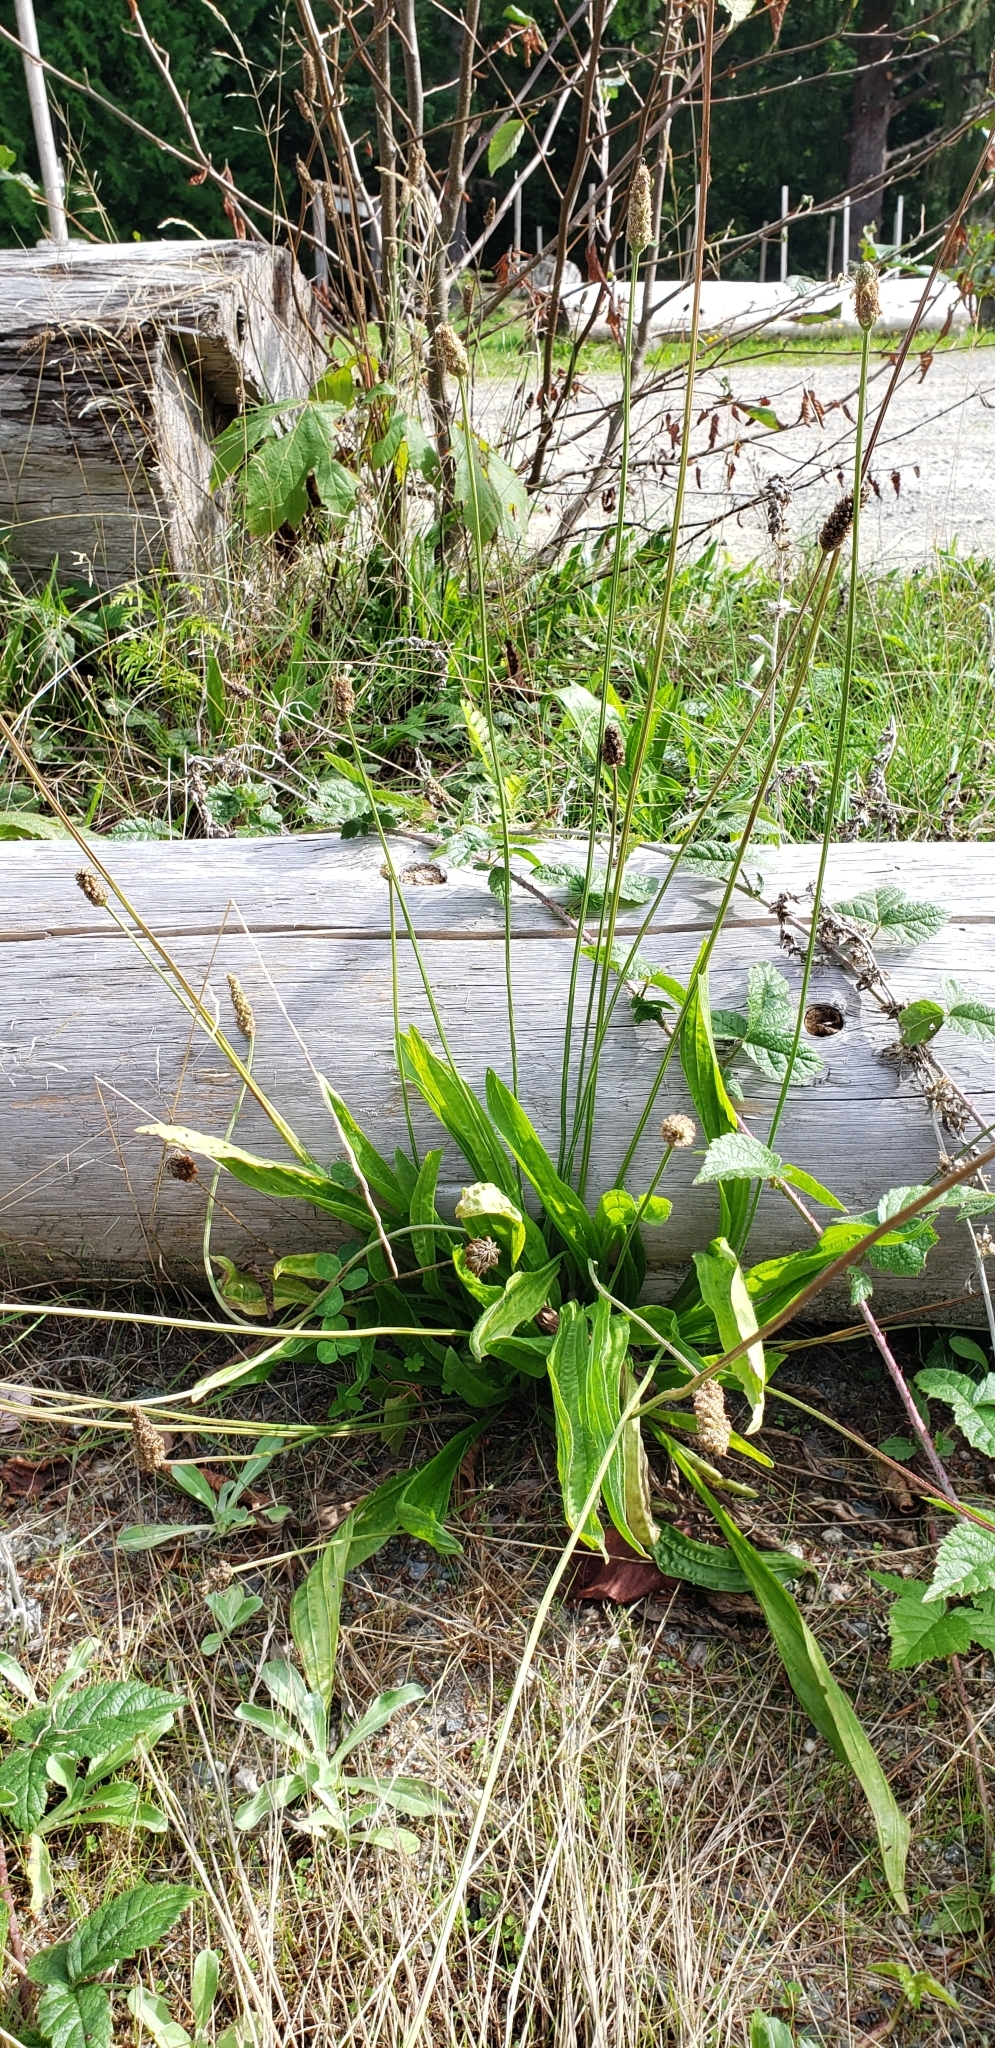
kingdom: Plantae
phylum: Tracheophyta
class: Magnoliopsida
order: Lamiales
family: Plantaginaceae
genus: Plantago
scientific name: Plantago lanceolata
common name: Ribwort plantain
